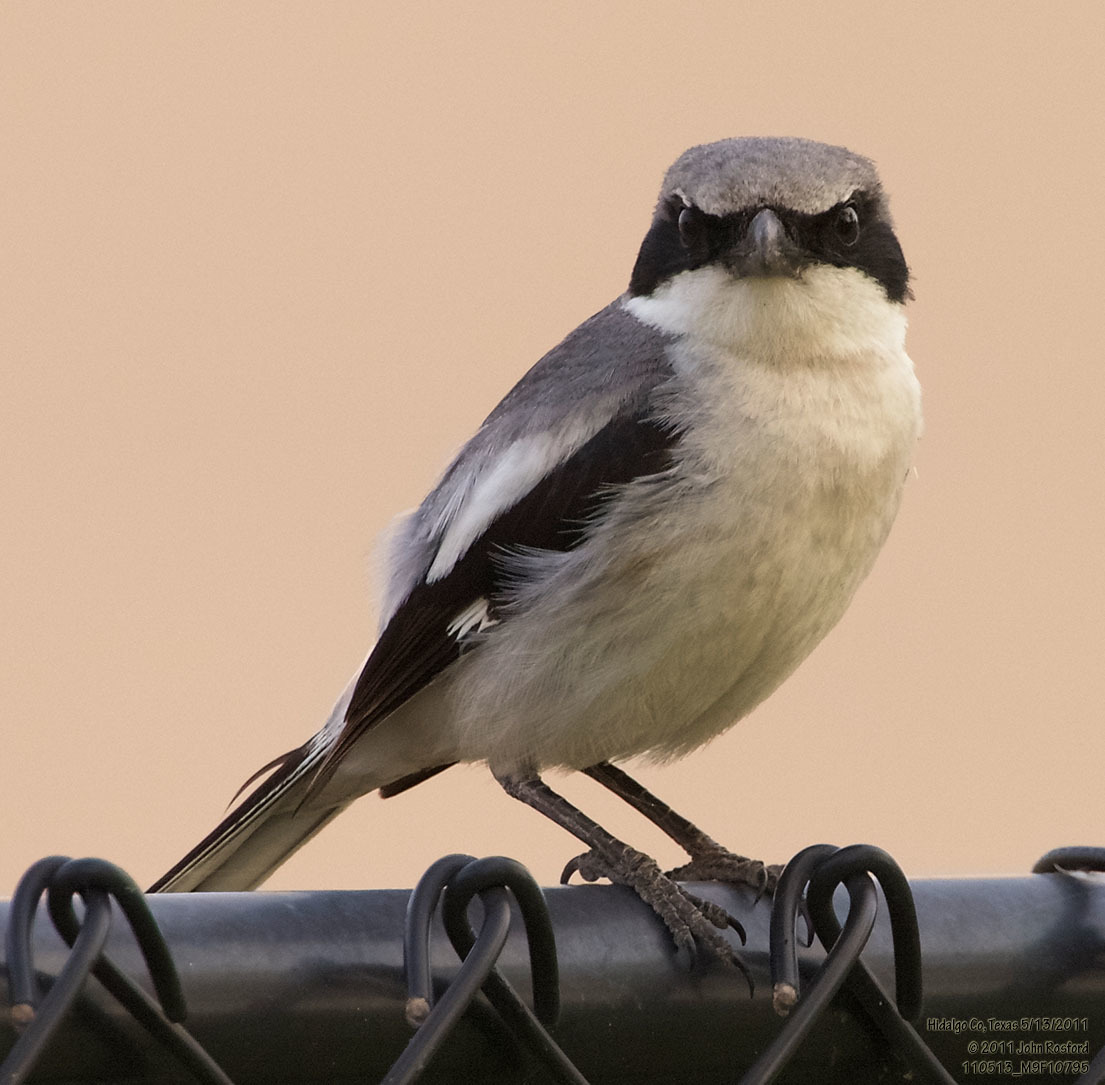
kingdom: Animalia
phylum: Chordata
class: Aves
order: Passeriformes
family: Laniidae
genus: Lanius
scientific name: Lanius ludovicianus
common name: Loggerhead shrike
